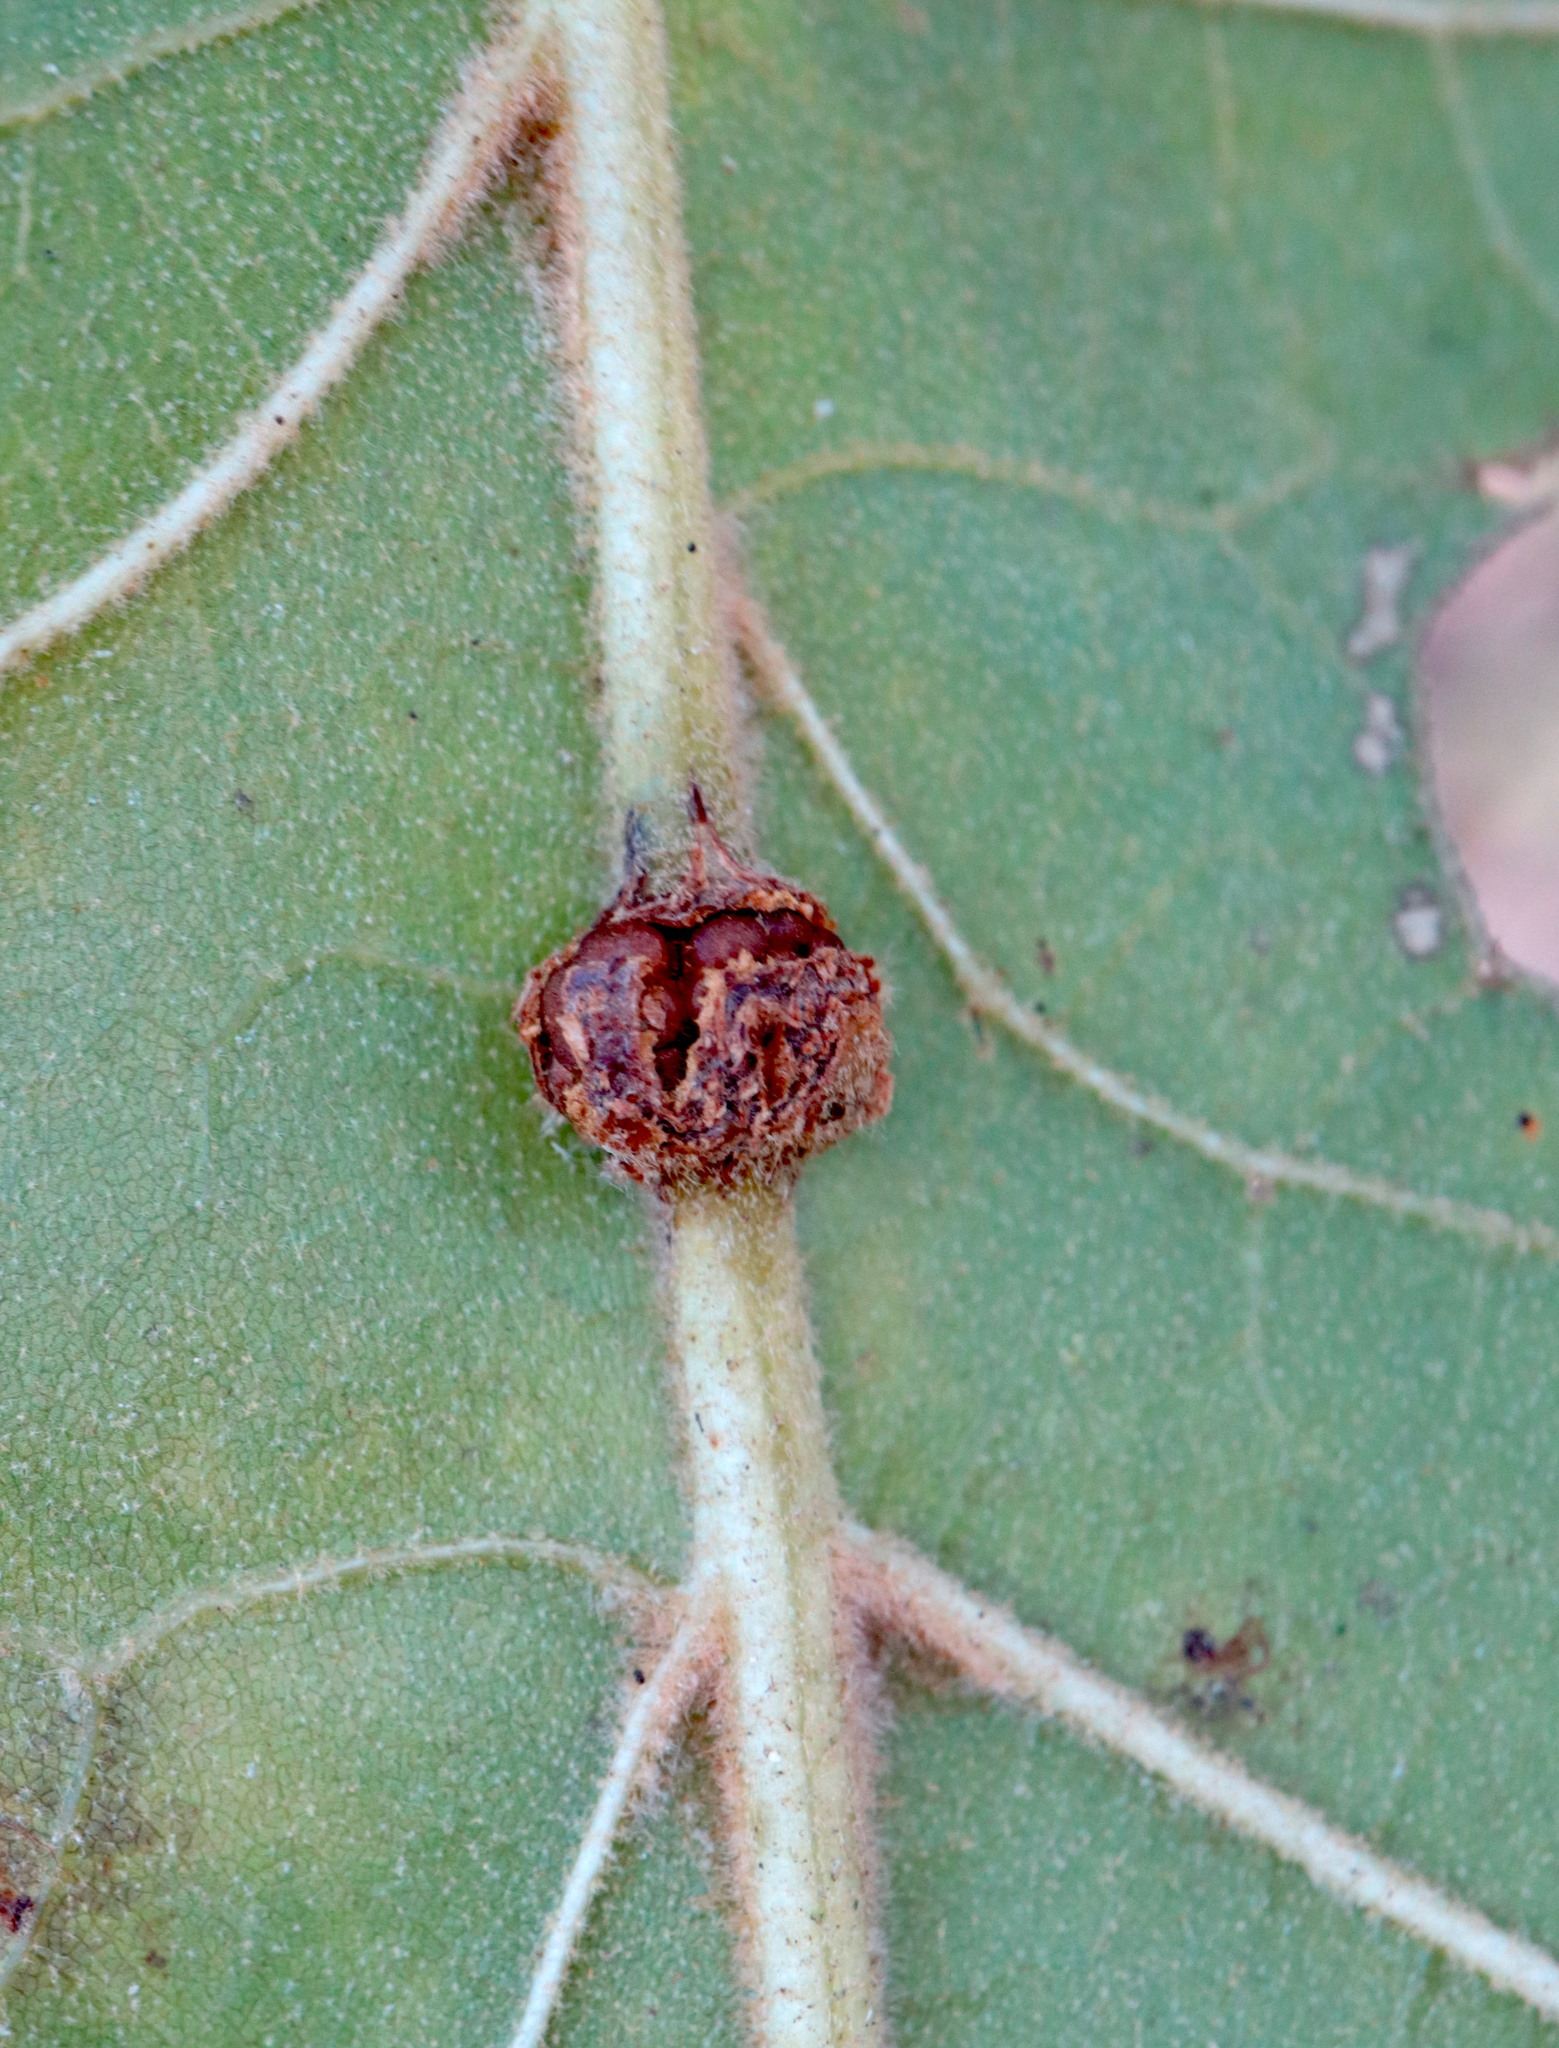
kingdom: Animalia
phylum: Arthropoda
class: Insecta
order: Hymenoptera
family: Cynipidae
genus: Kokkocynips
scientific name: Kokkocynips decidua
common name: Oak wheat gall
